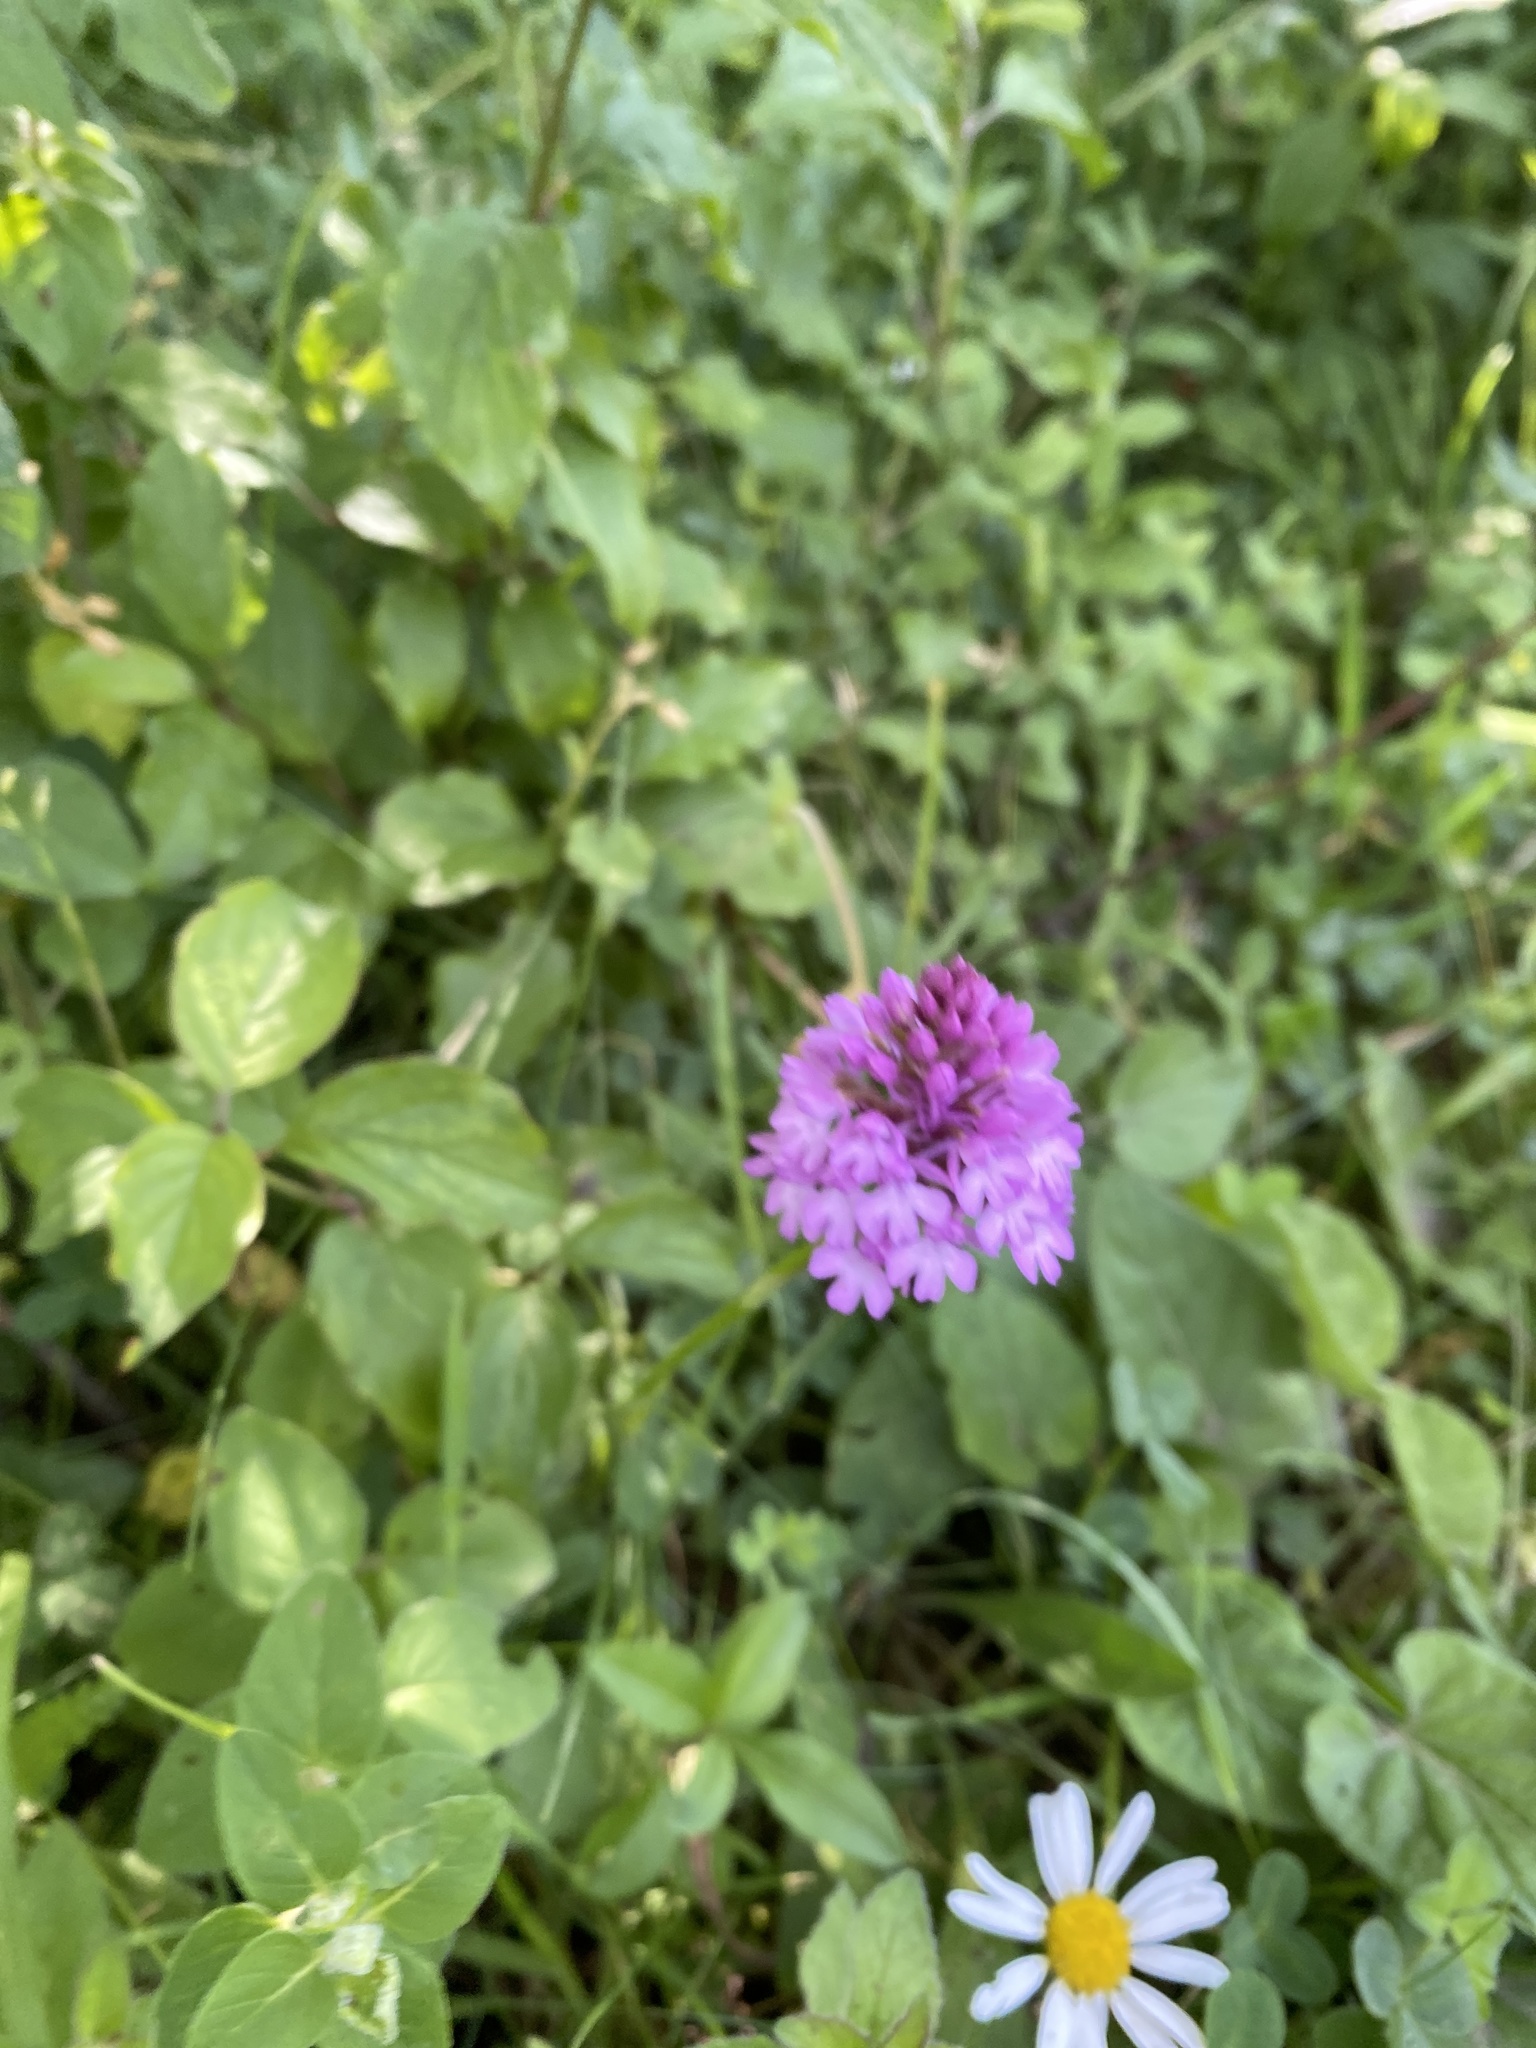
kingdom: Plantae
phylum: Tracheophyta
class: Liliopsida
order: Asparagales
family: Orchidaceae
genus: Anacamptis
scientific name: Anacamptis pyramidalis
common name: Pyramidal orchid
